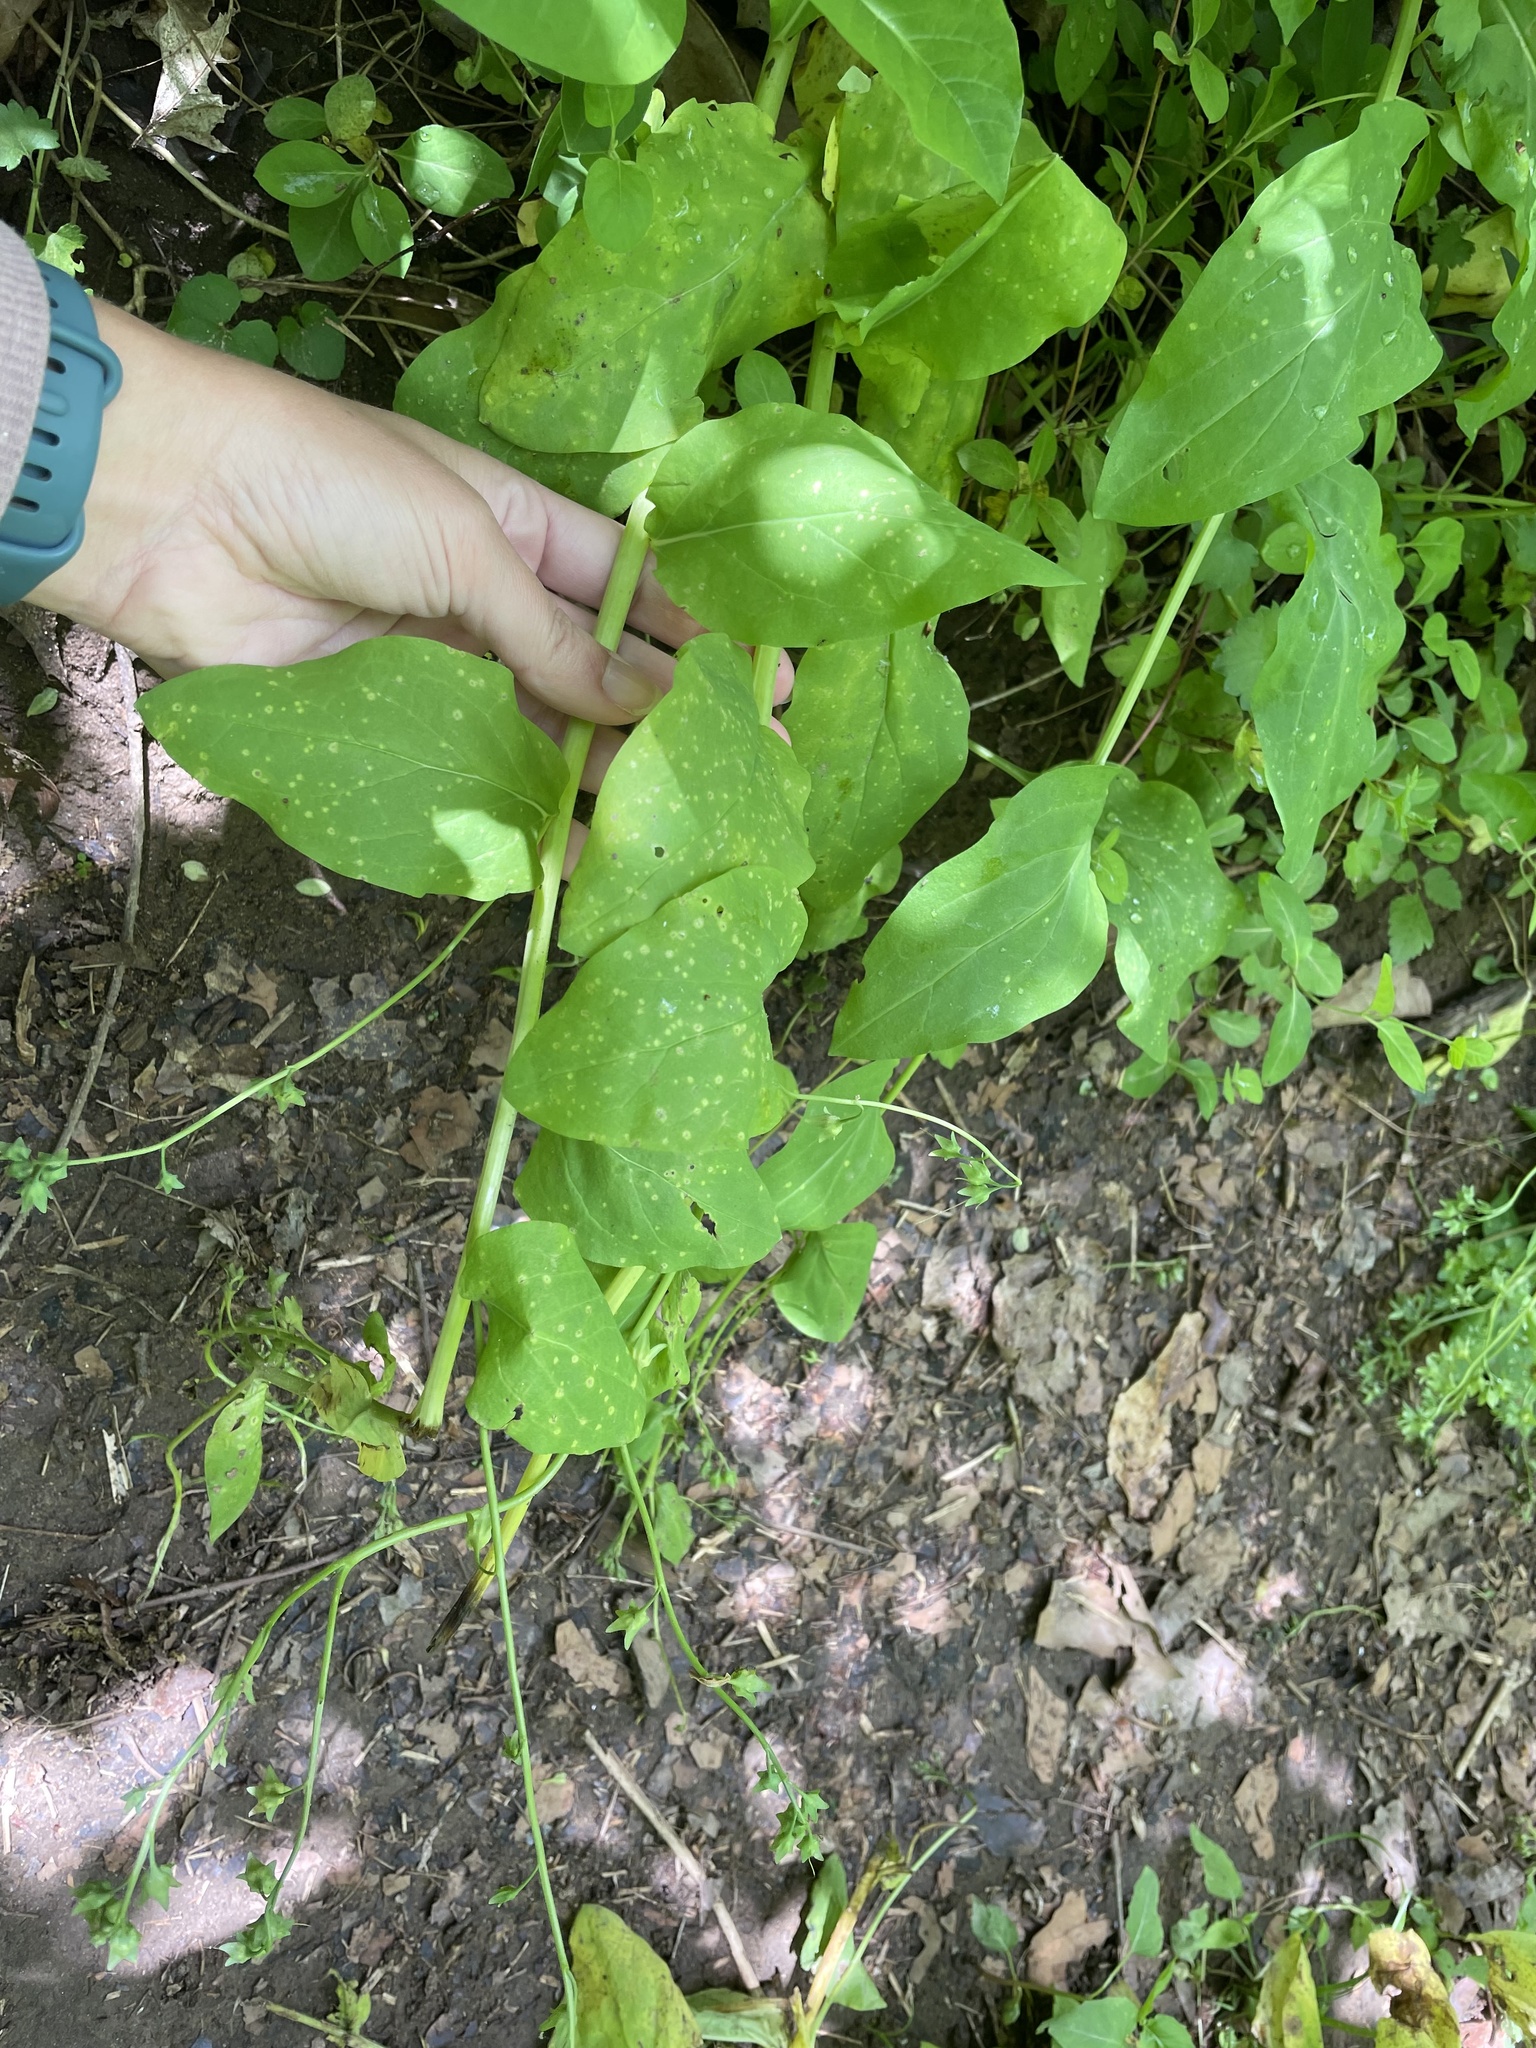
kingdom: Plantae
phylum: Tracheophyta
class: Magnoliopsida
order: Boraginales
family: Boraginaceae
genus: Mertensia
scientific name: Mertensia virginica
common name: Virginia bluebells
